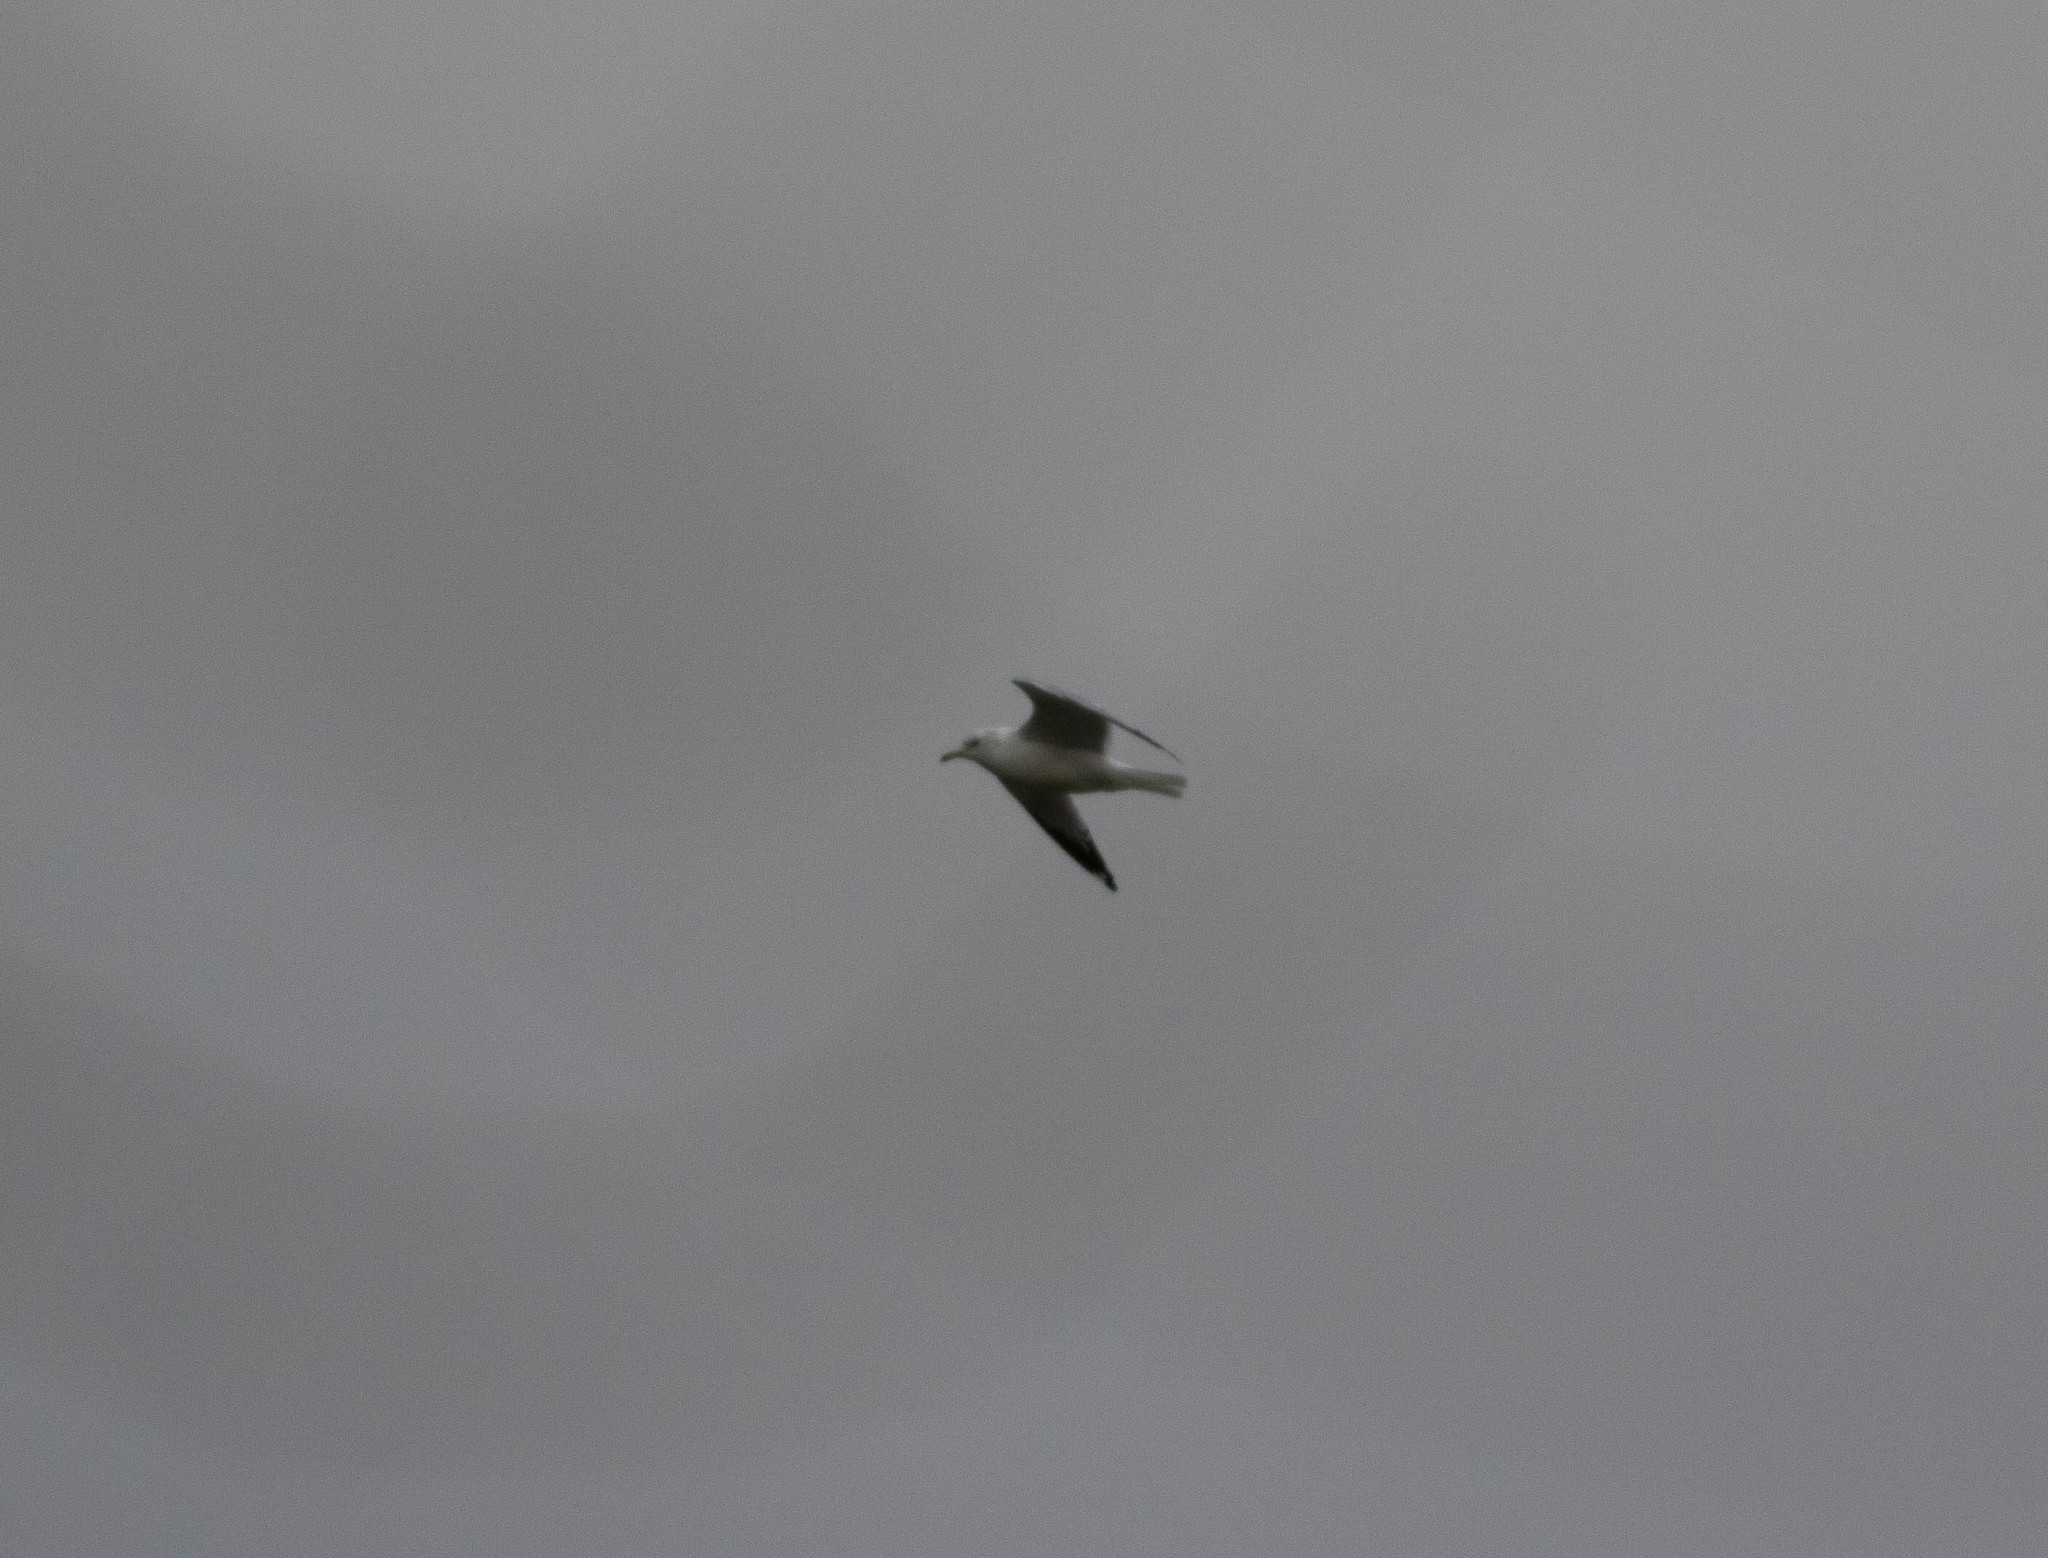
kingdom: Animalia
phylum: Chordata
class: Aves
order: Charadriiformes
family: Laridae
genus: Larus
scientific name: Larus delawarensis
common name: Ring-billed gull
